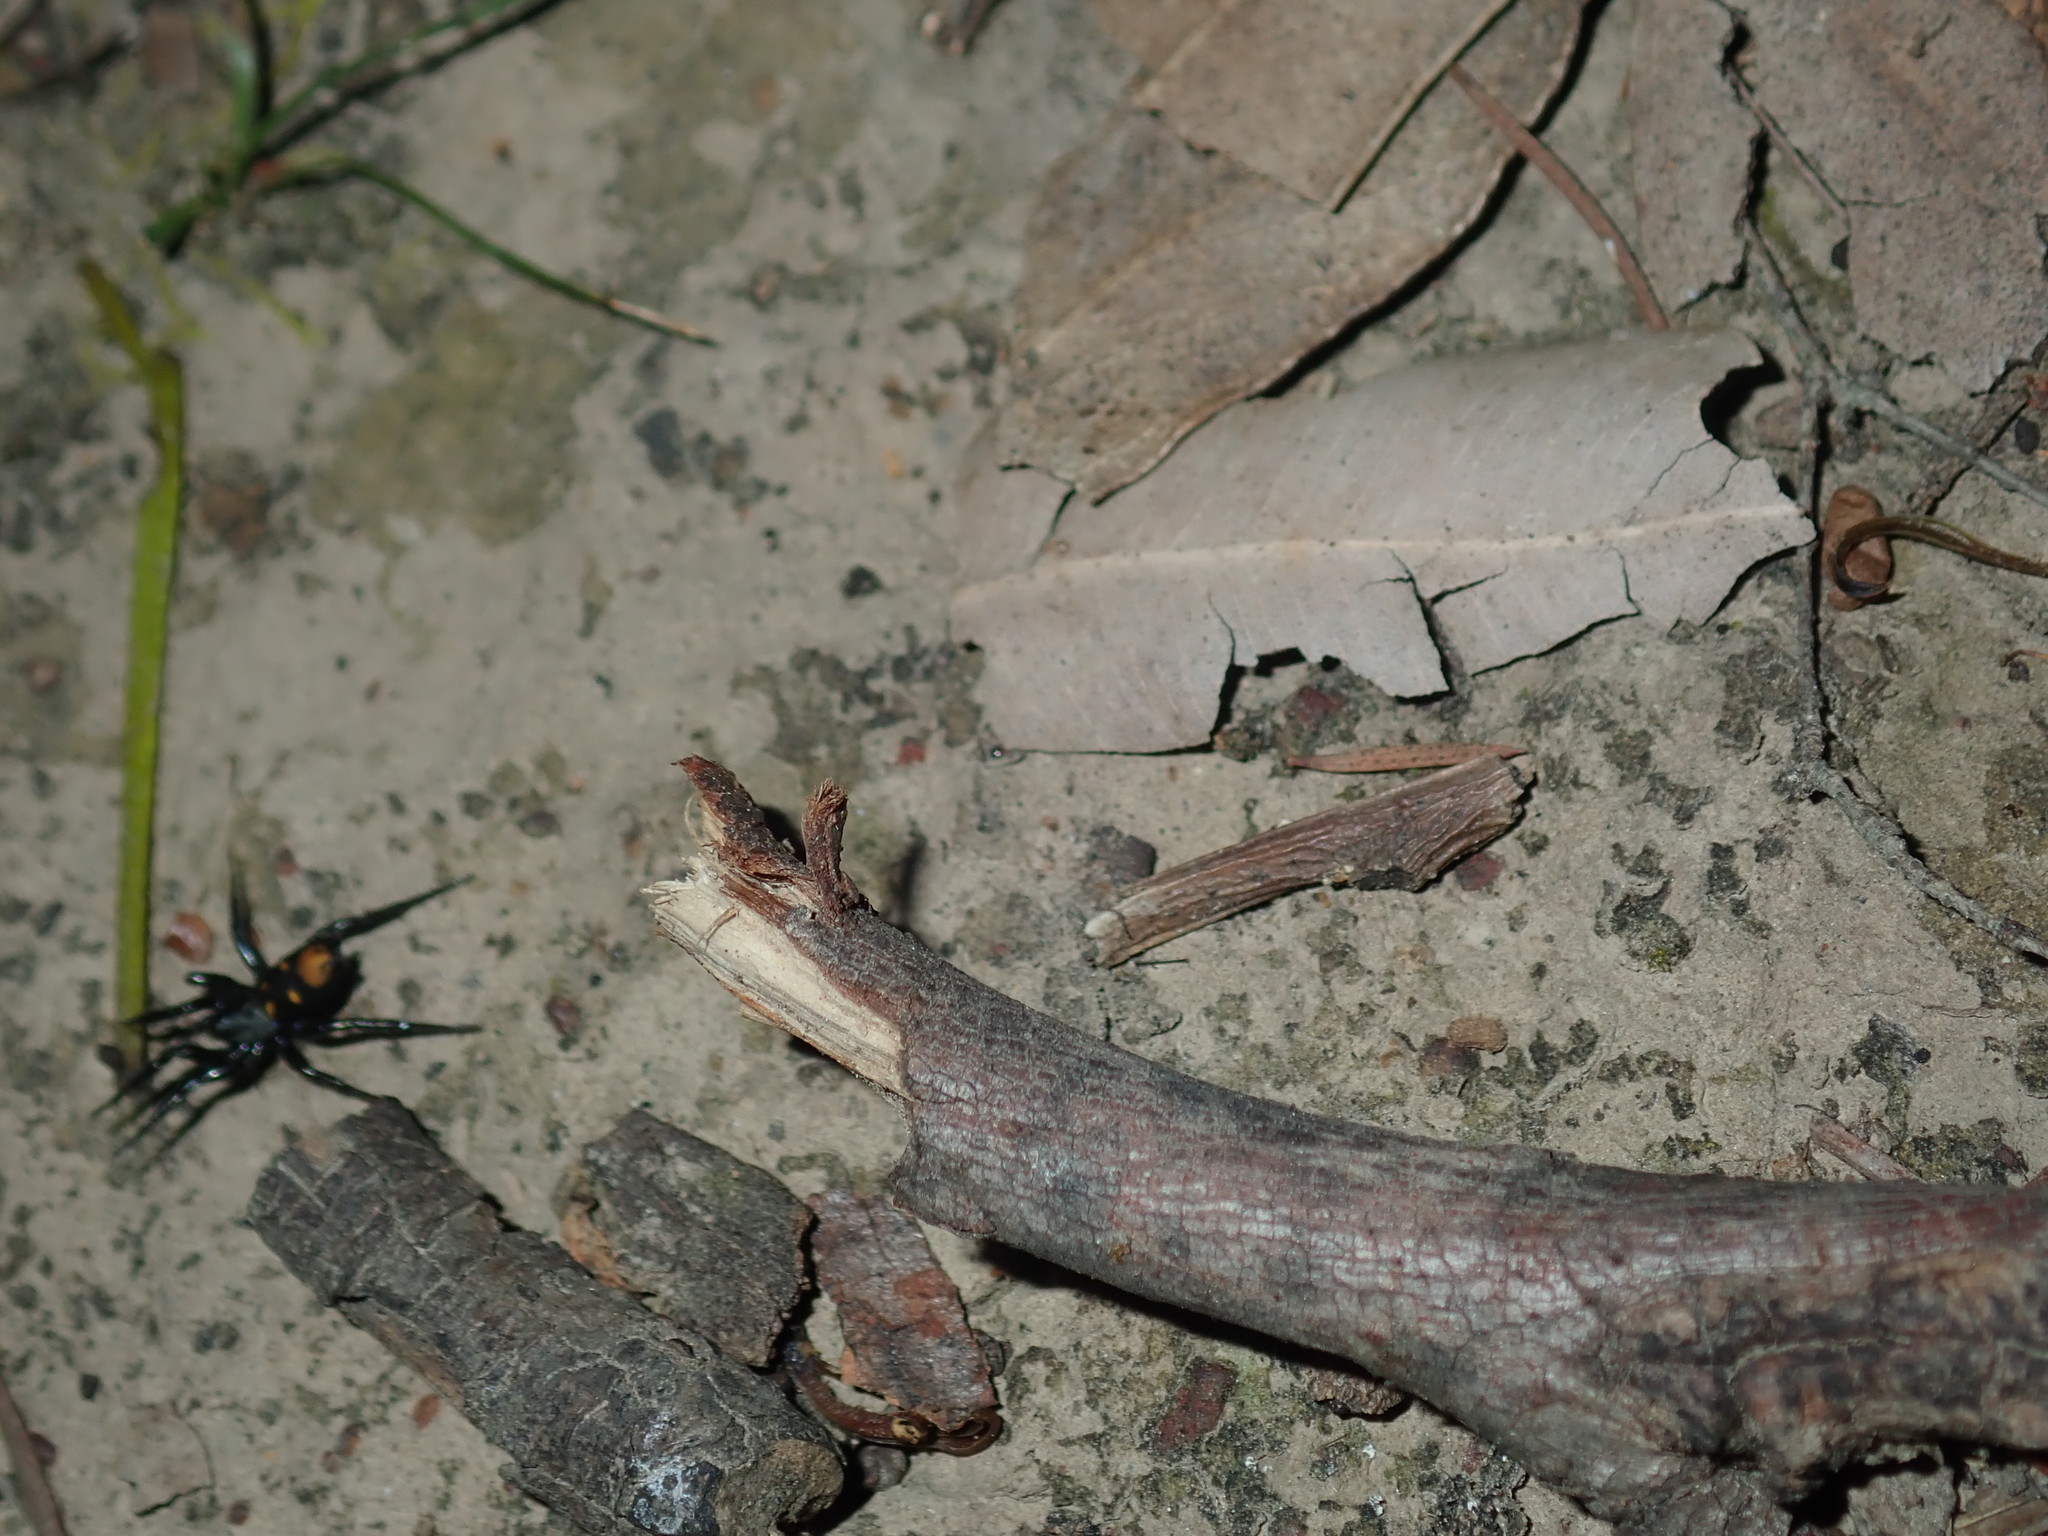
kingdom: Animalia
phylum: Arthropoda
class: Arachnida
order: Araneae
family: Gnaphosidae
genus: Eilica
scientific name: Eilica
